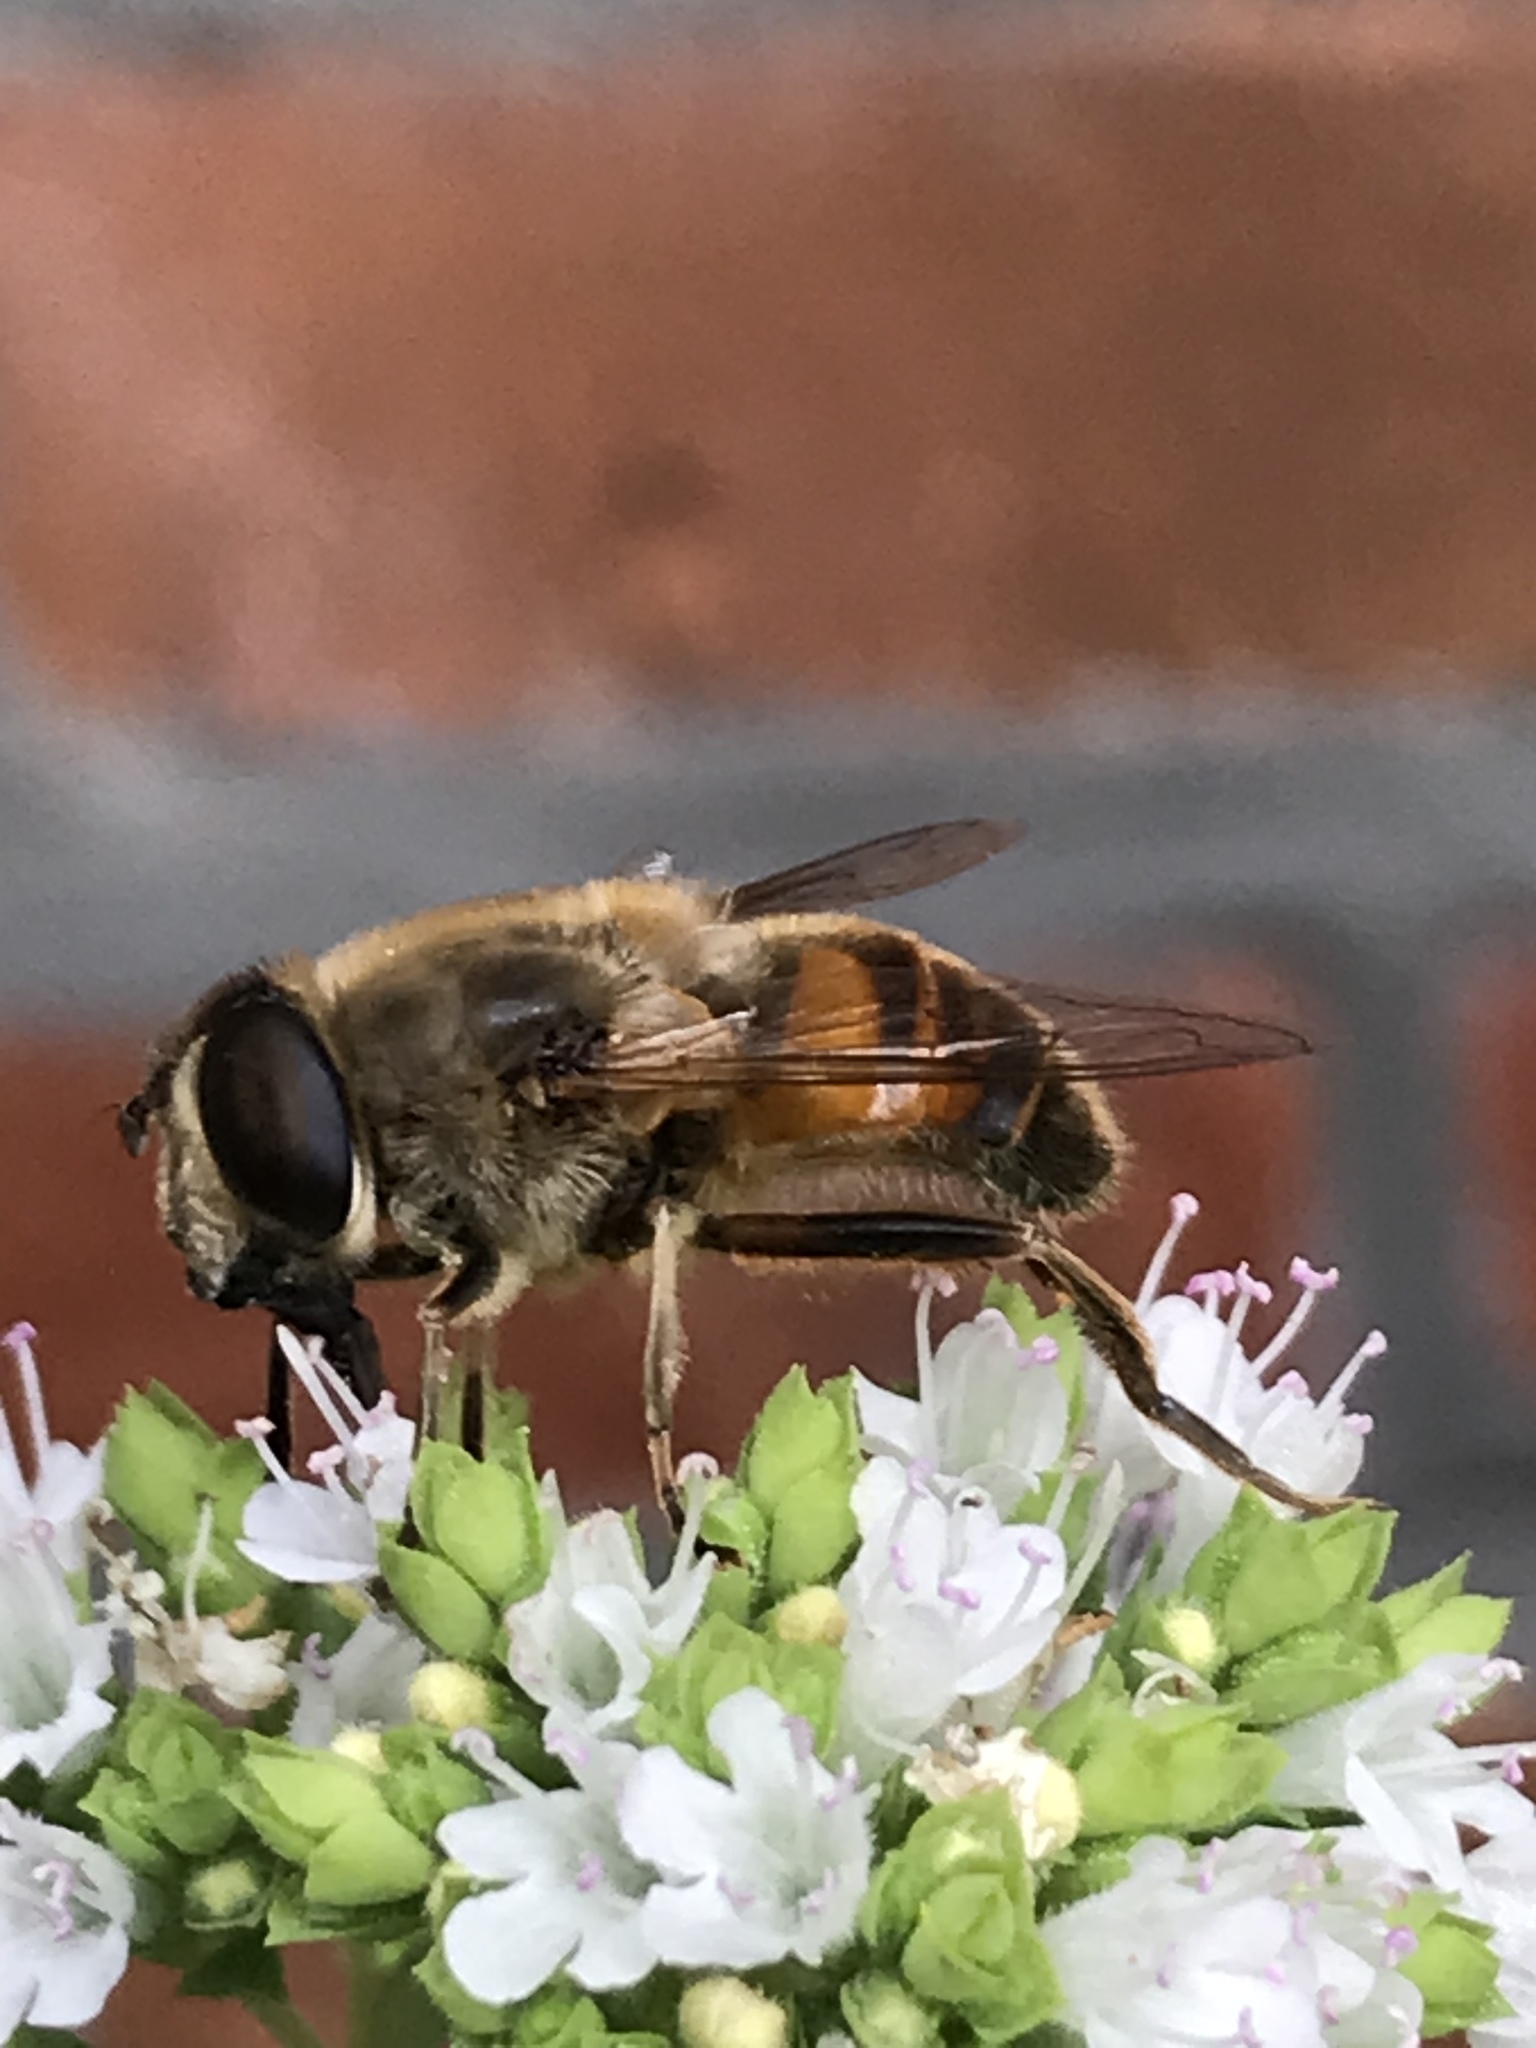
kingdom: Animalia
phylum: Arthropoda
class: Insecta
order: Diptera
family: Syrphidae
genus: Eristalis
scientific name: Eristalis tenax
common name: Drone fly
